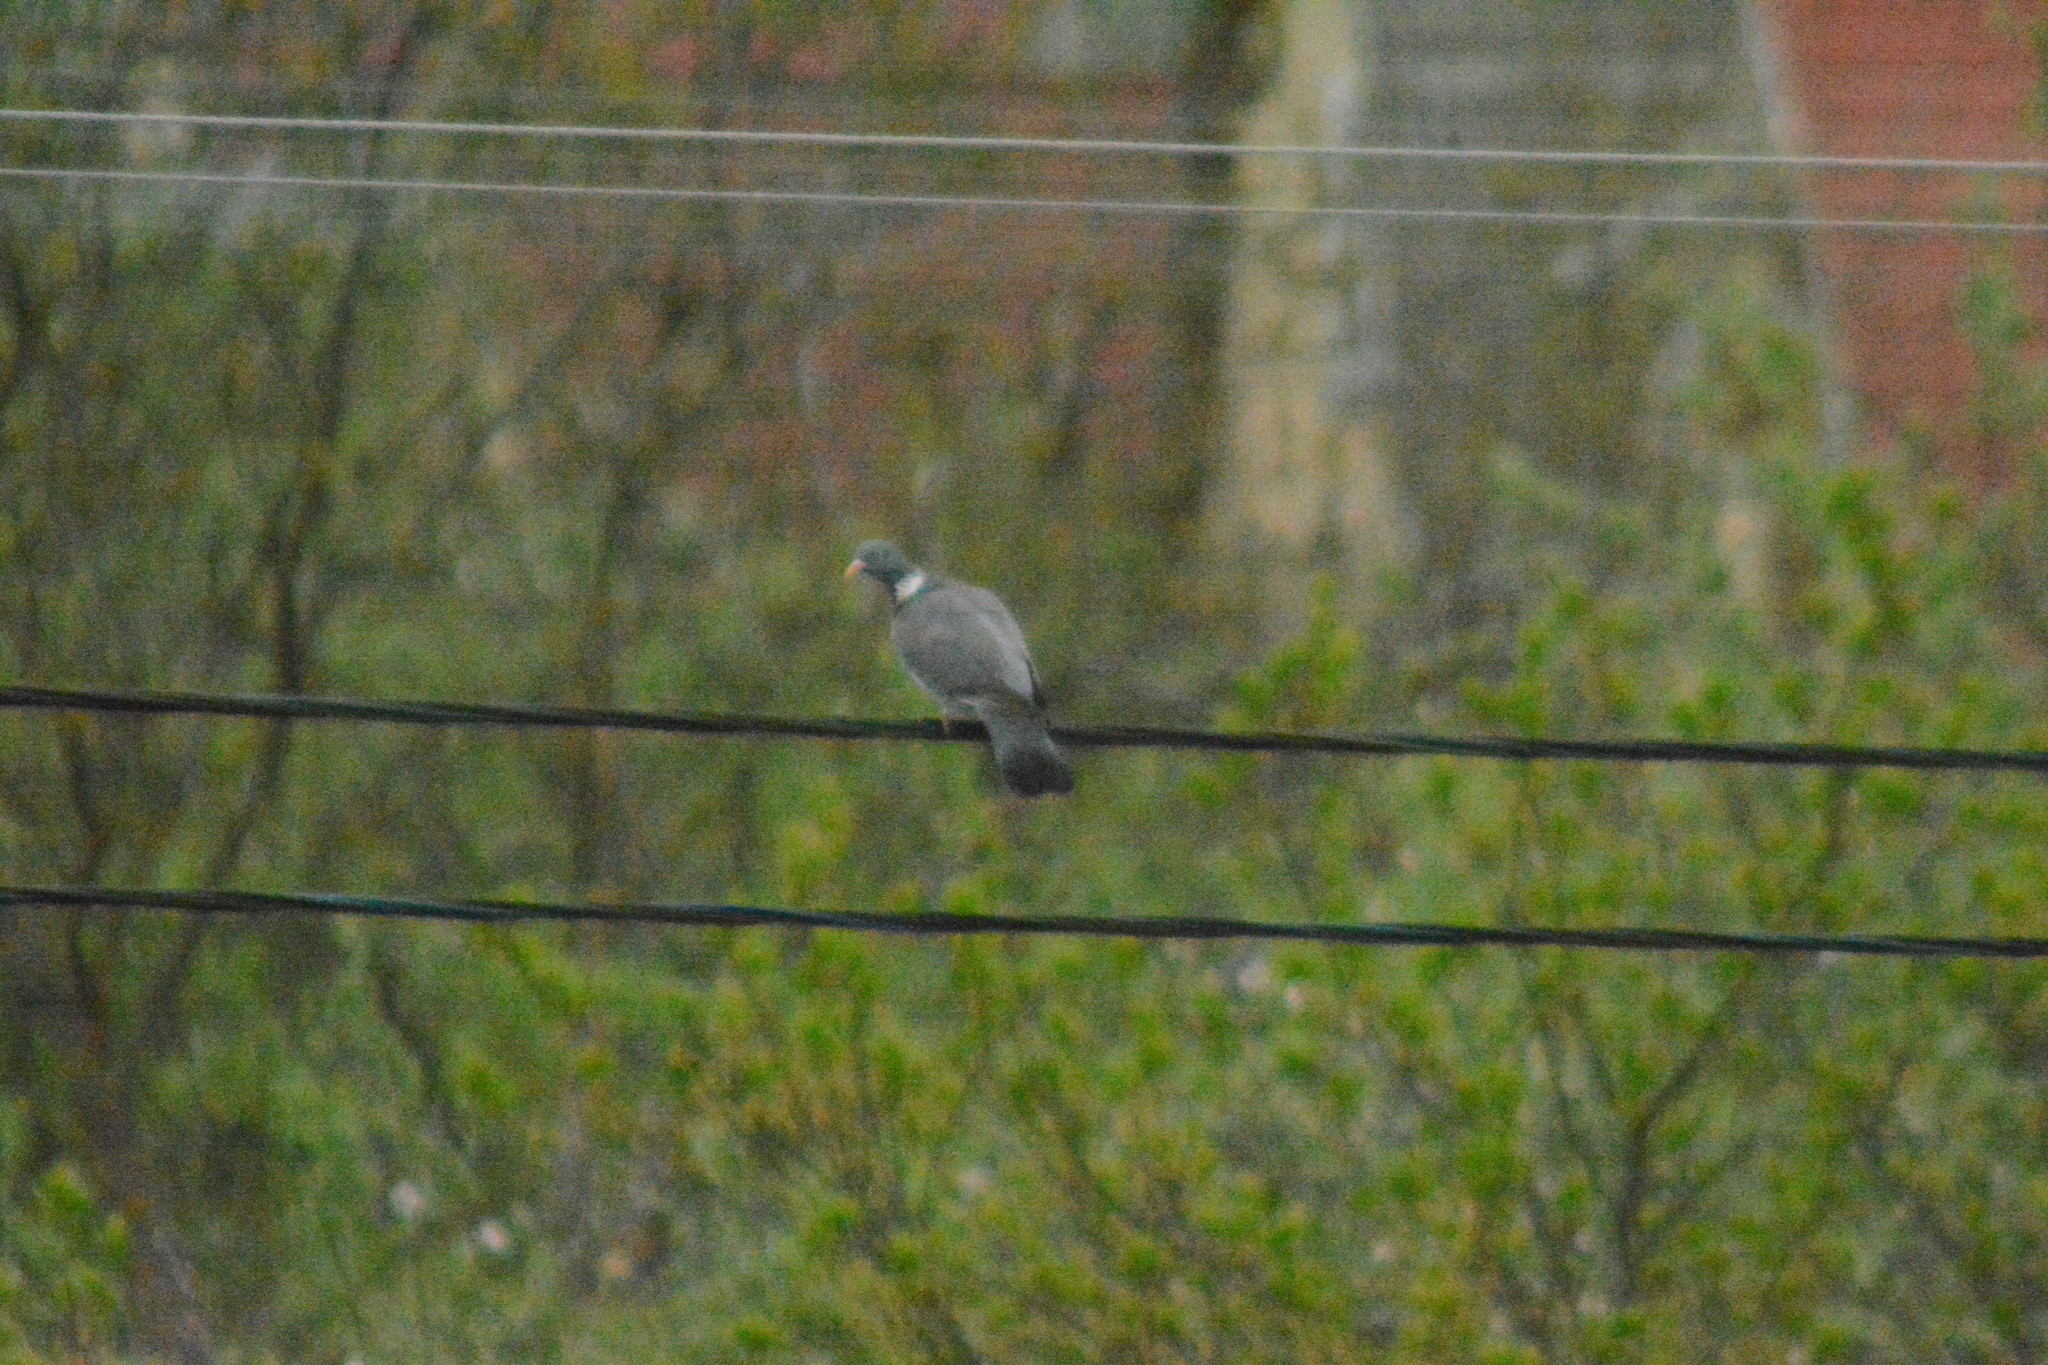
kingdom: Animalia
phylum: Chordata
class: Aves
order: Columbiformes
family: Columbidae
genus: Columba
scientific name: Columba palumbus
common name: Common wood pigeon
